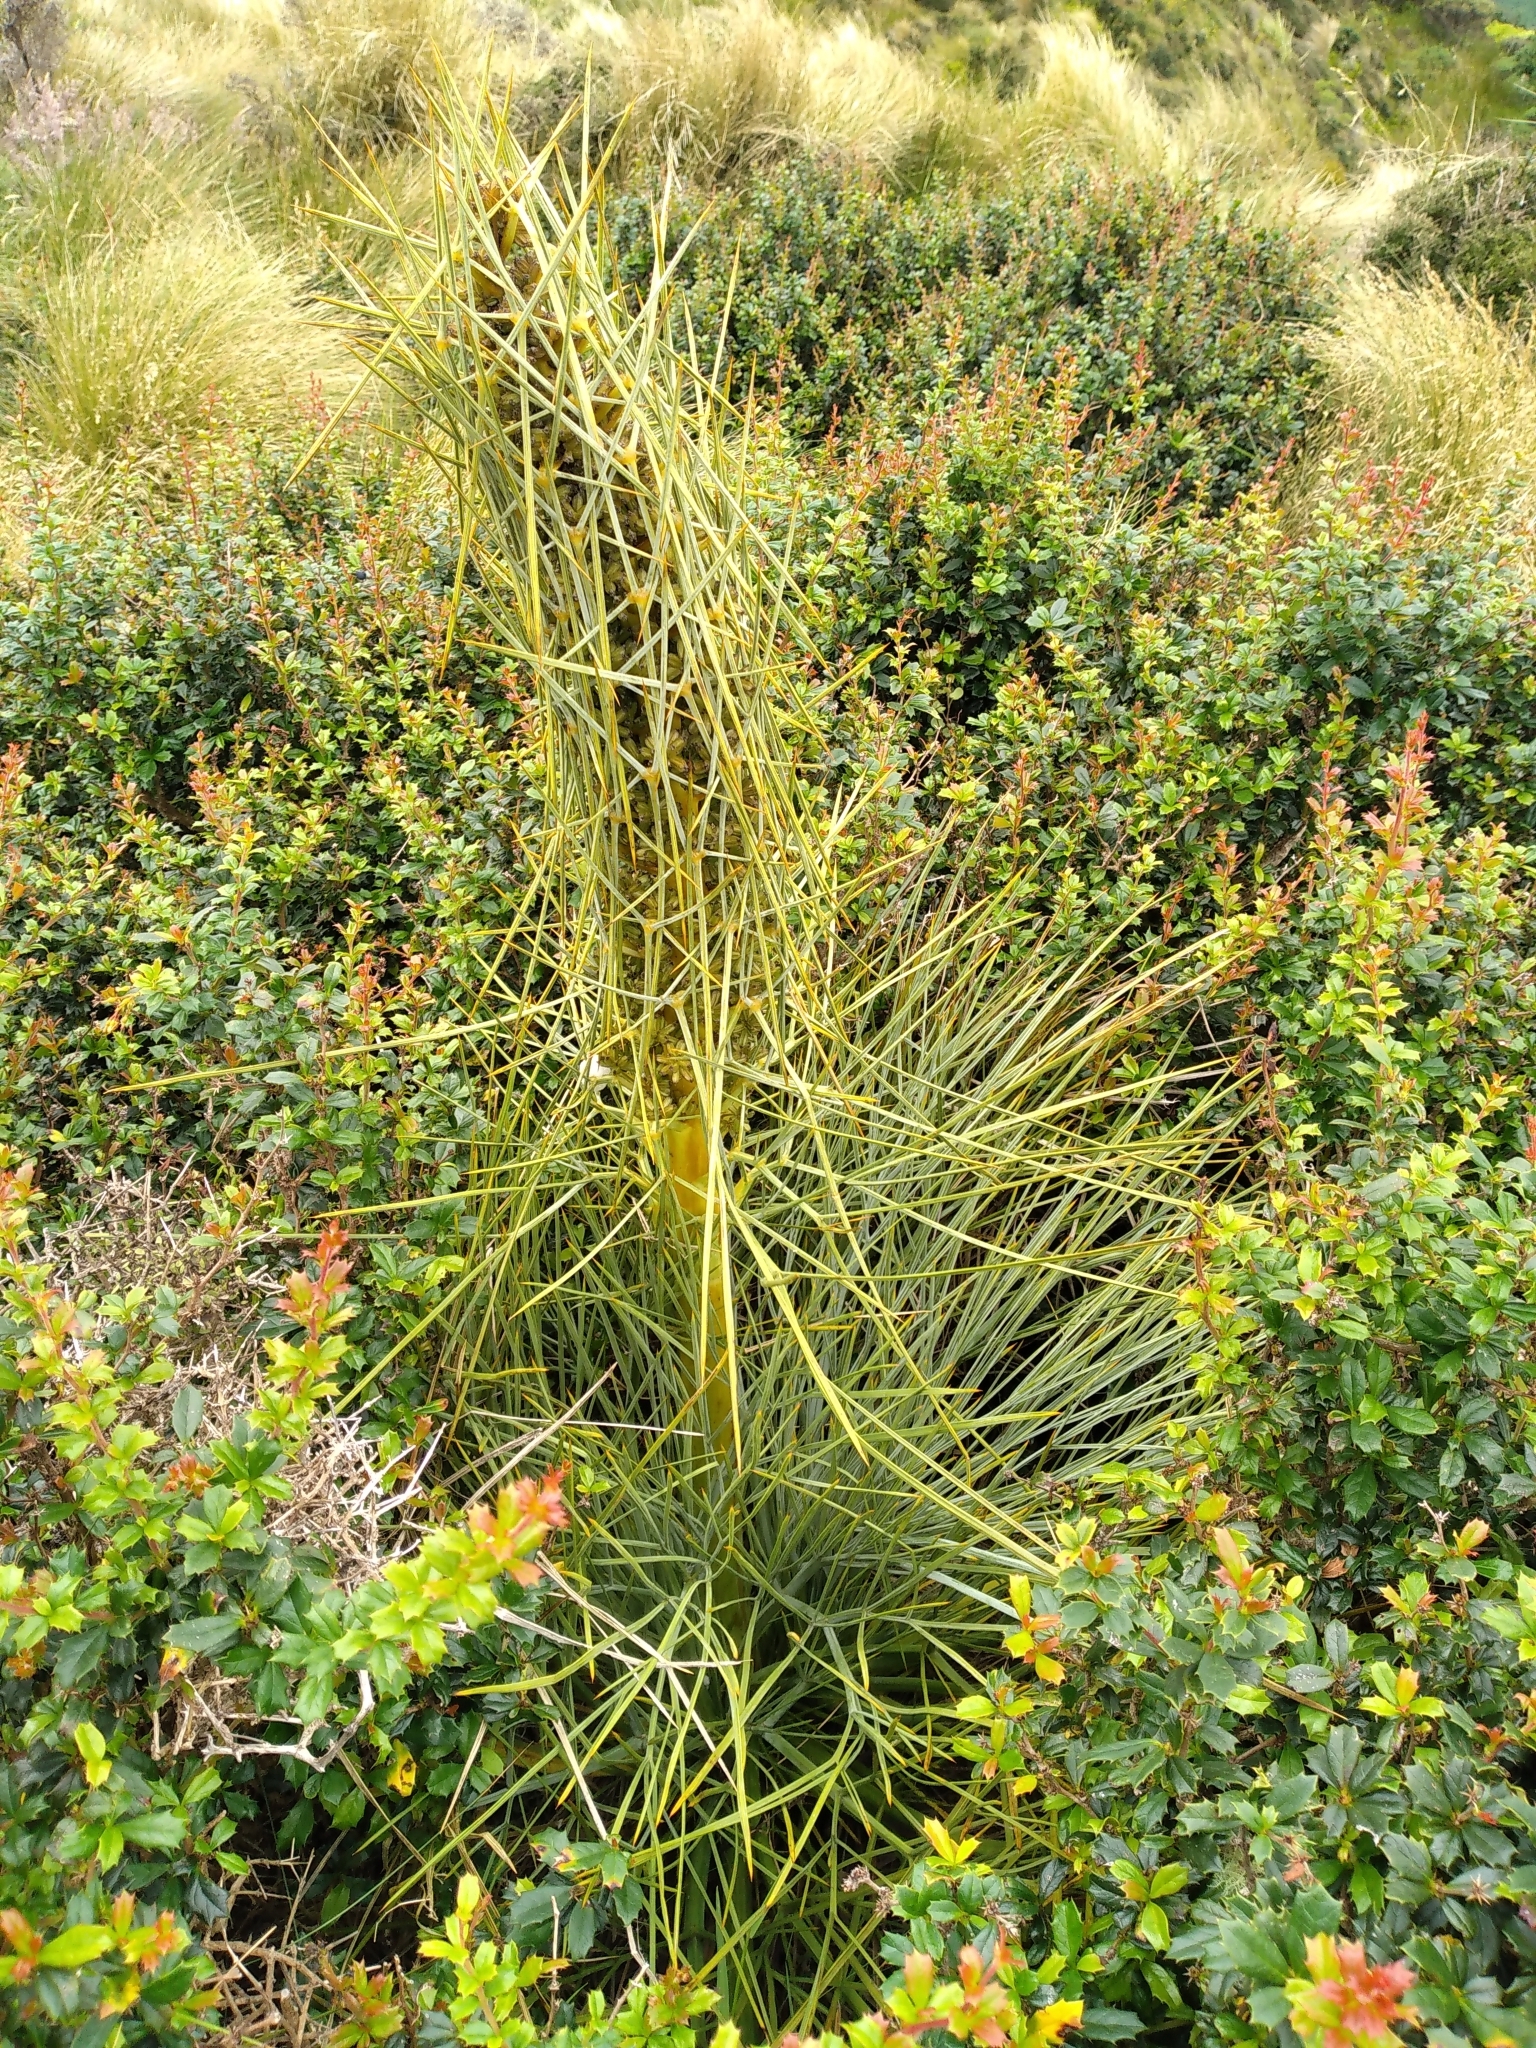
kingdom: Plantae
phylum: Tracheophyta
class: Magnoliopsida
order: Apiales
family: Apiaceae
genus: Aciphylla
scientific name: Aciphylla squarrosa
